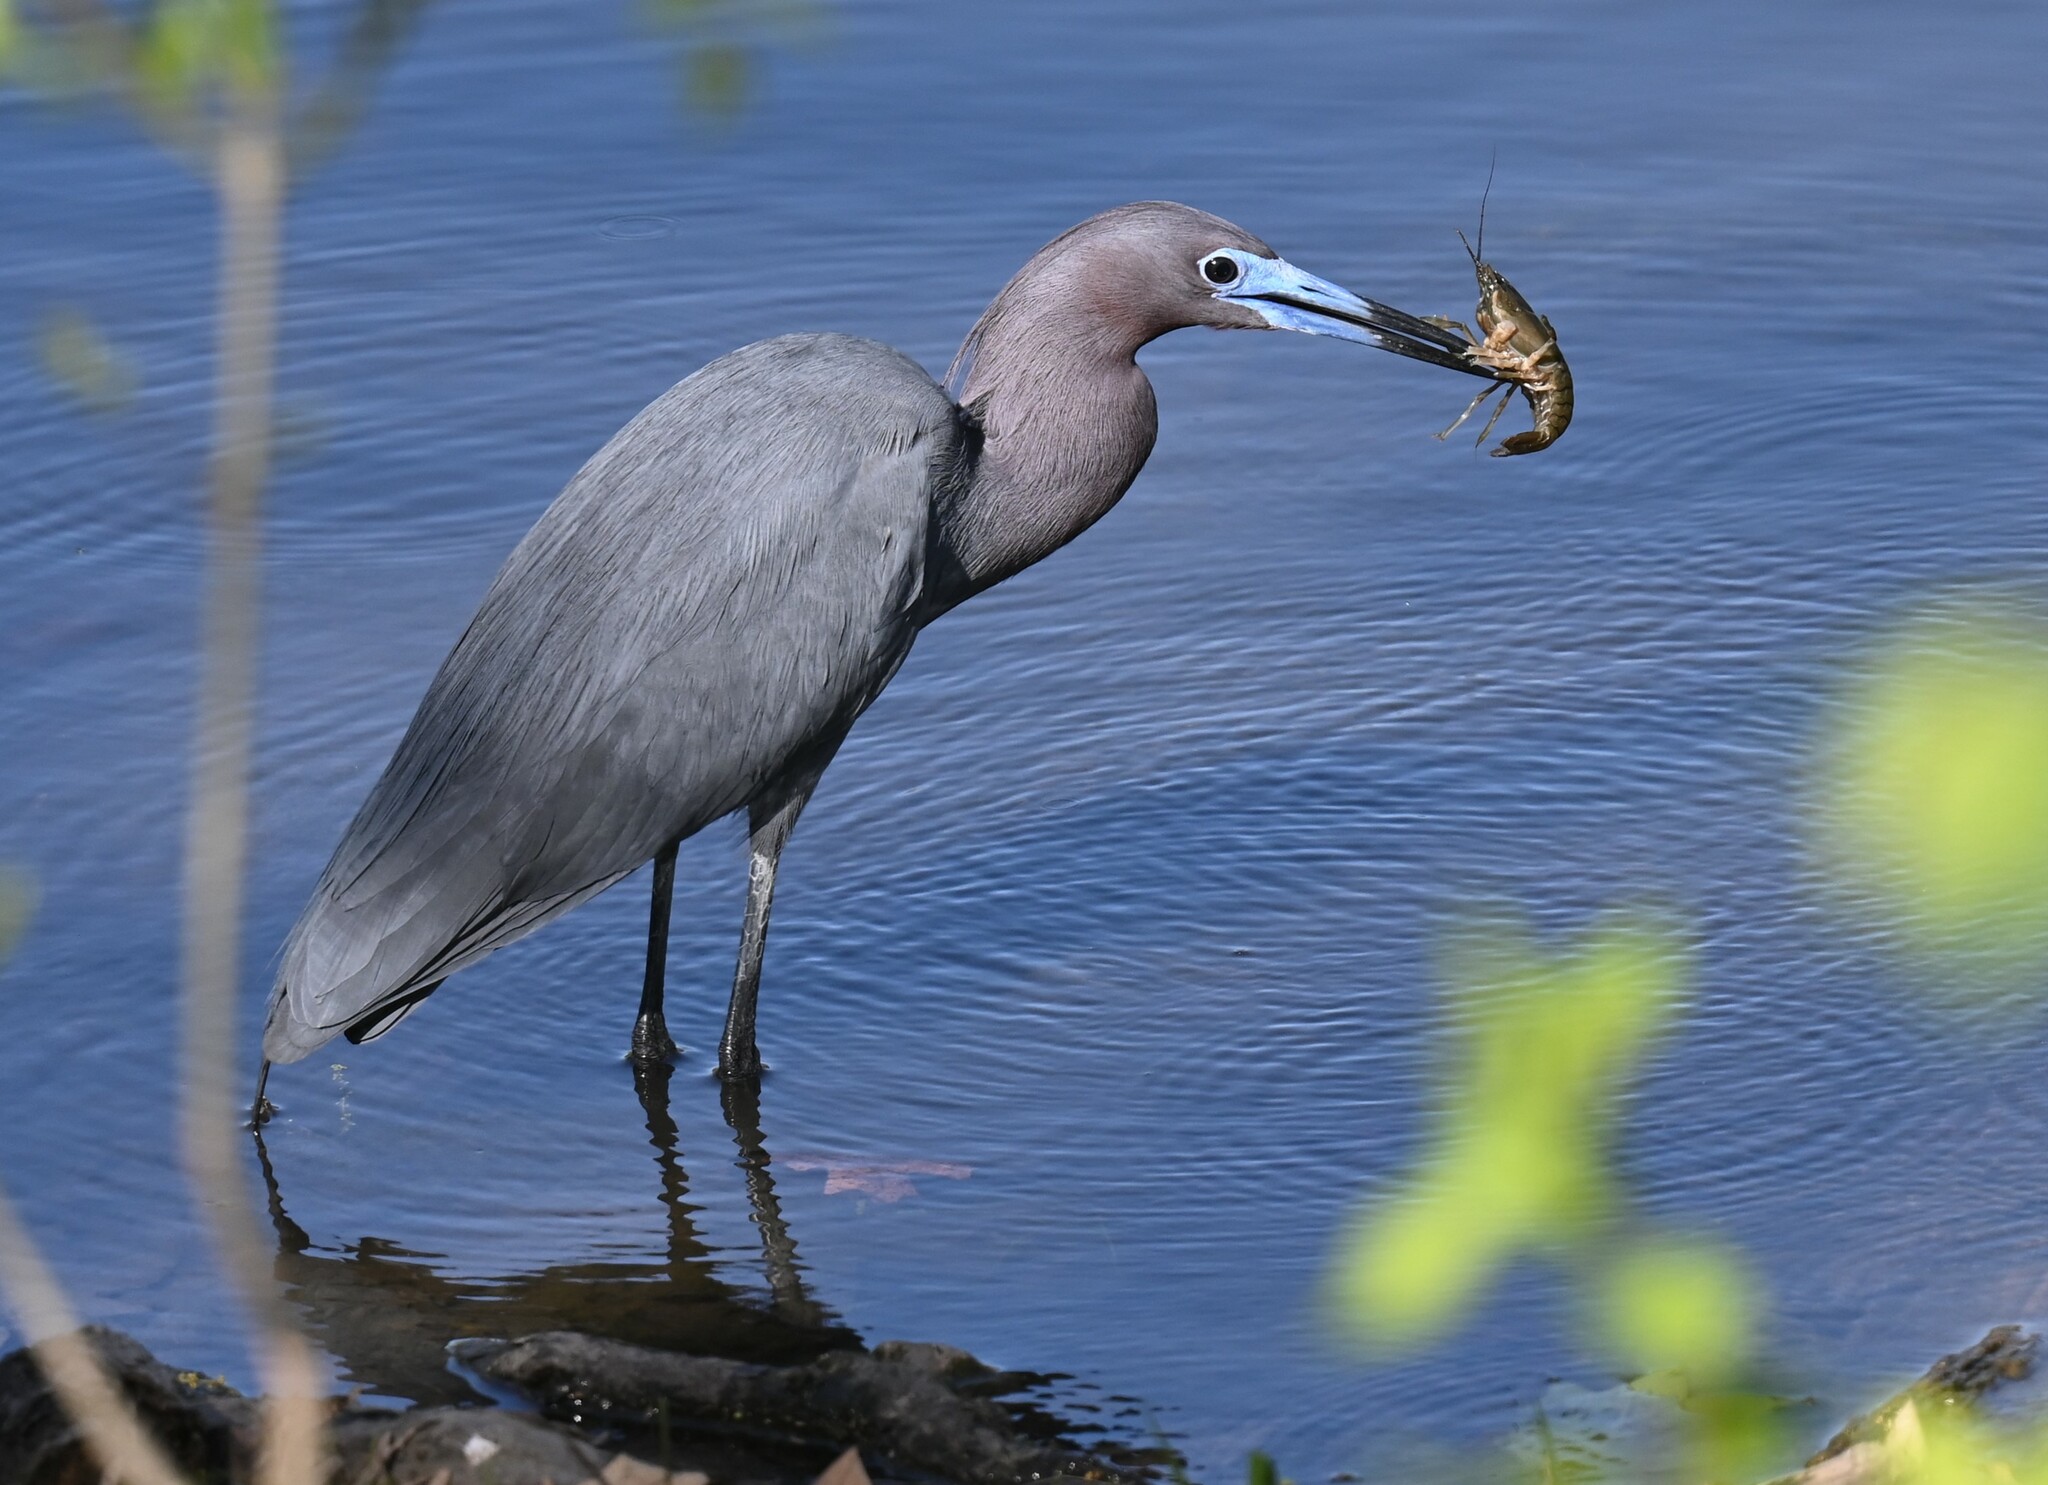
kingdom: Animalia
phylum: Chordata
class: Aves
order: Pelecaniformes
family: Ardeidae
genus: Egretta
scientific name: Egretta caerulea
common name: Little blue heron
